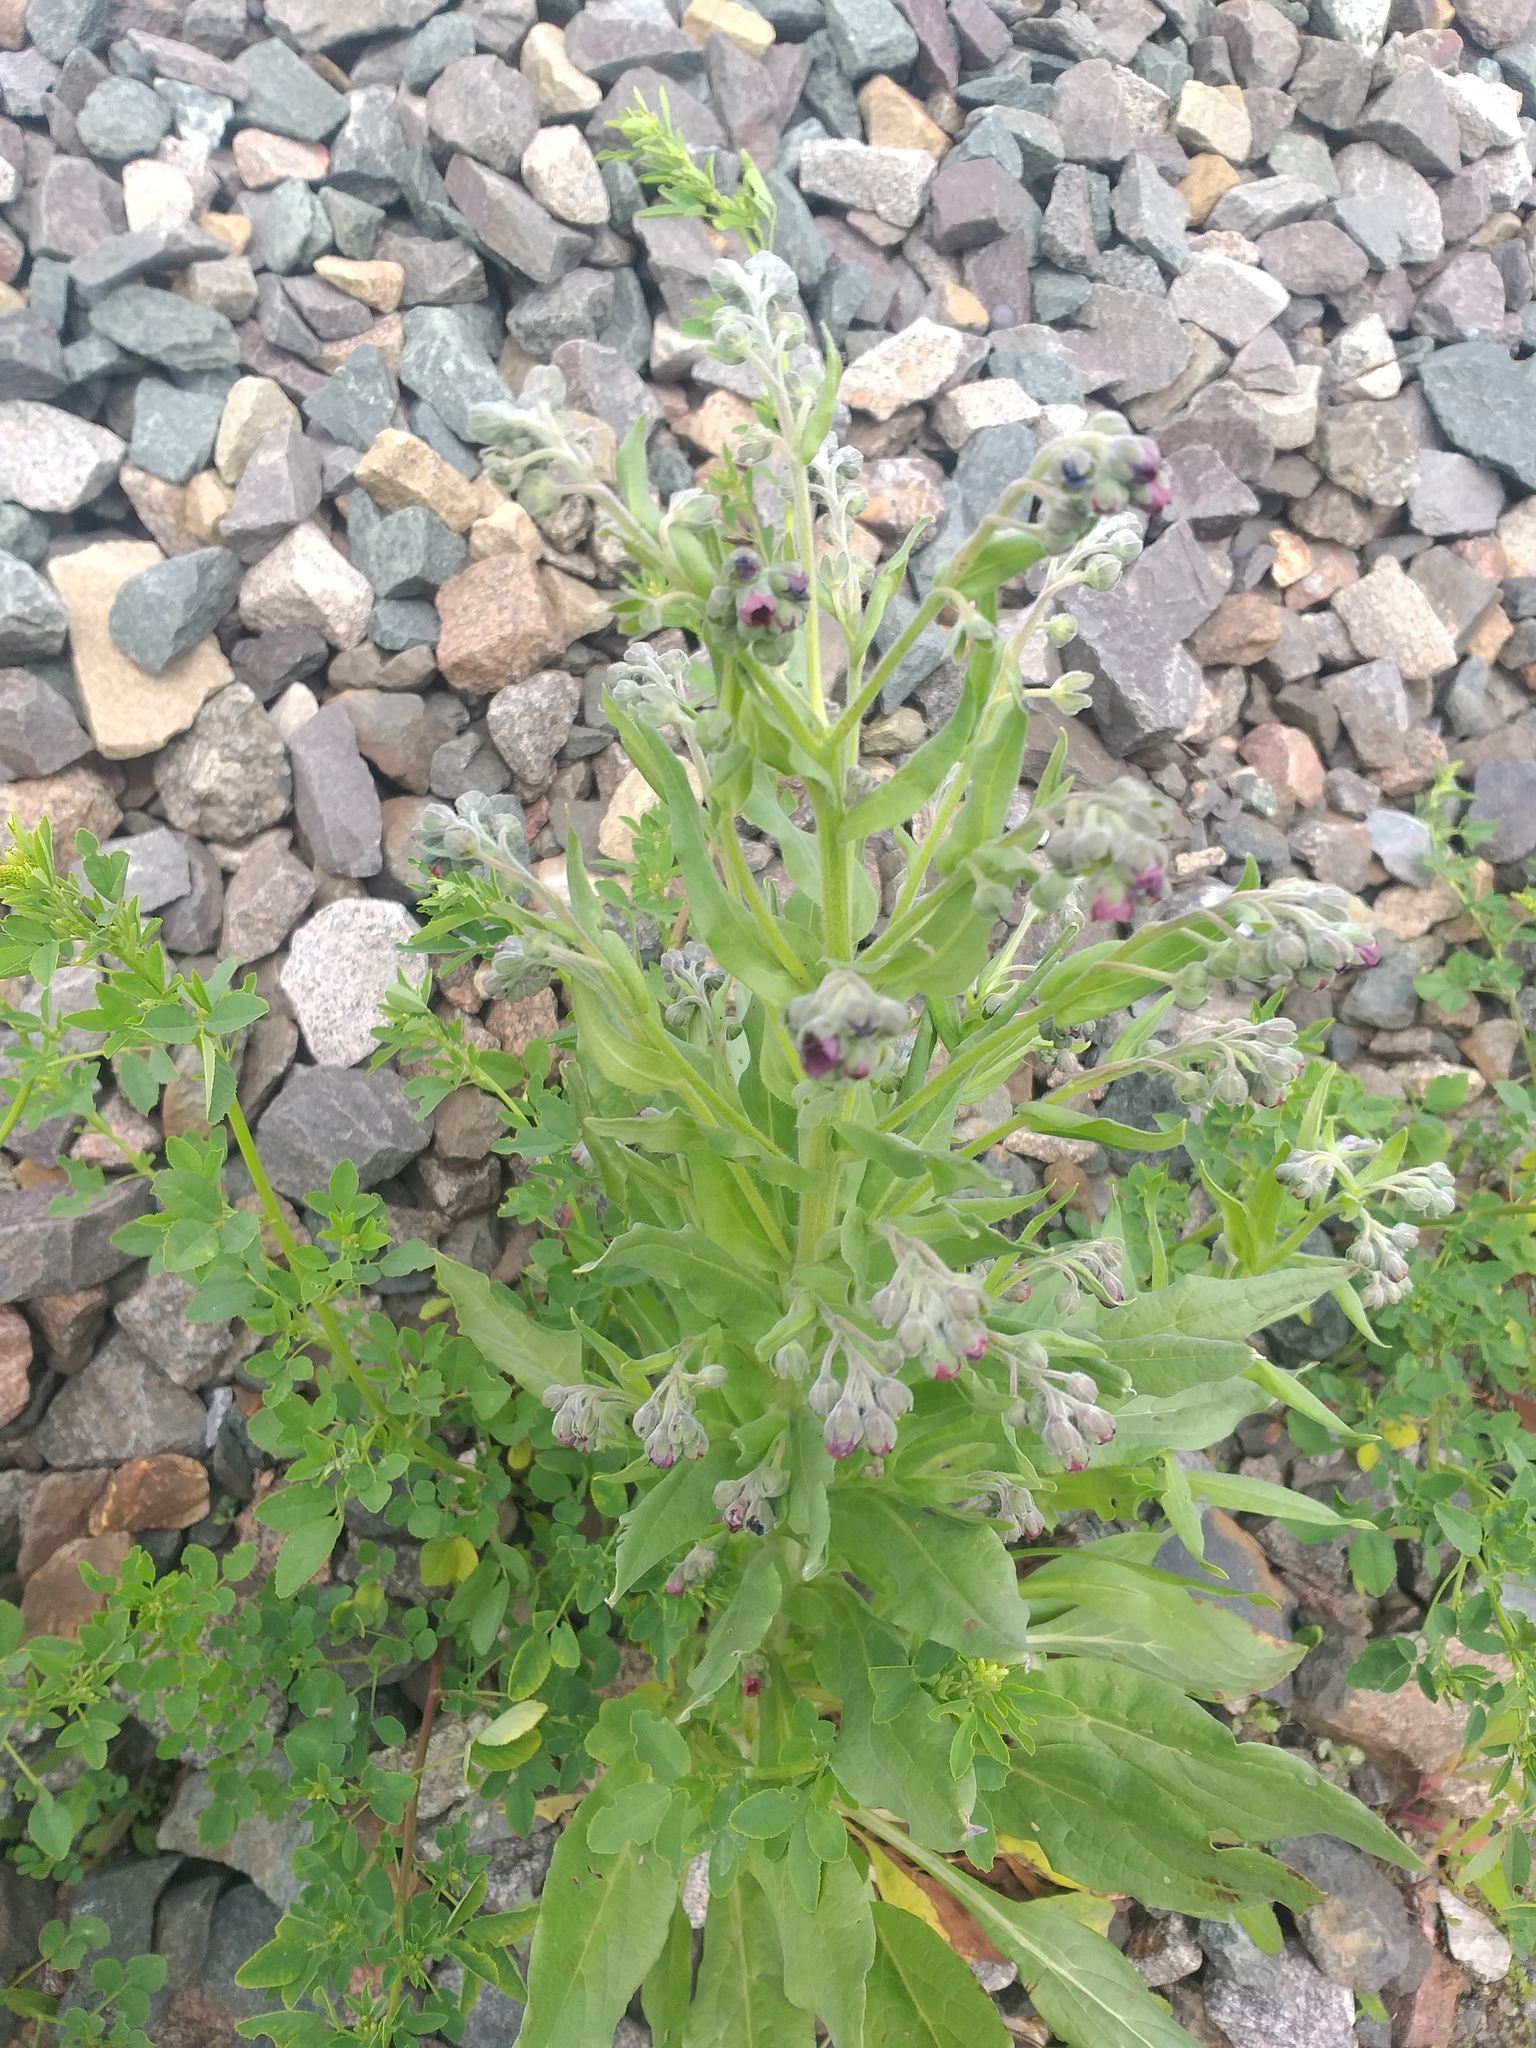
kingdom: Plantae
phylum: Tracheophyta
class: Magnoliopsida
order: Boraginales
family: Boraginaceae
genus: Cynoglossum
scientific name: Cynoglossum officinale
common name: Hound's-tongue
